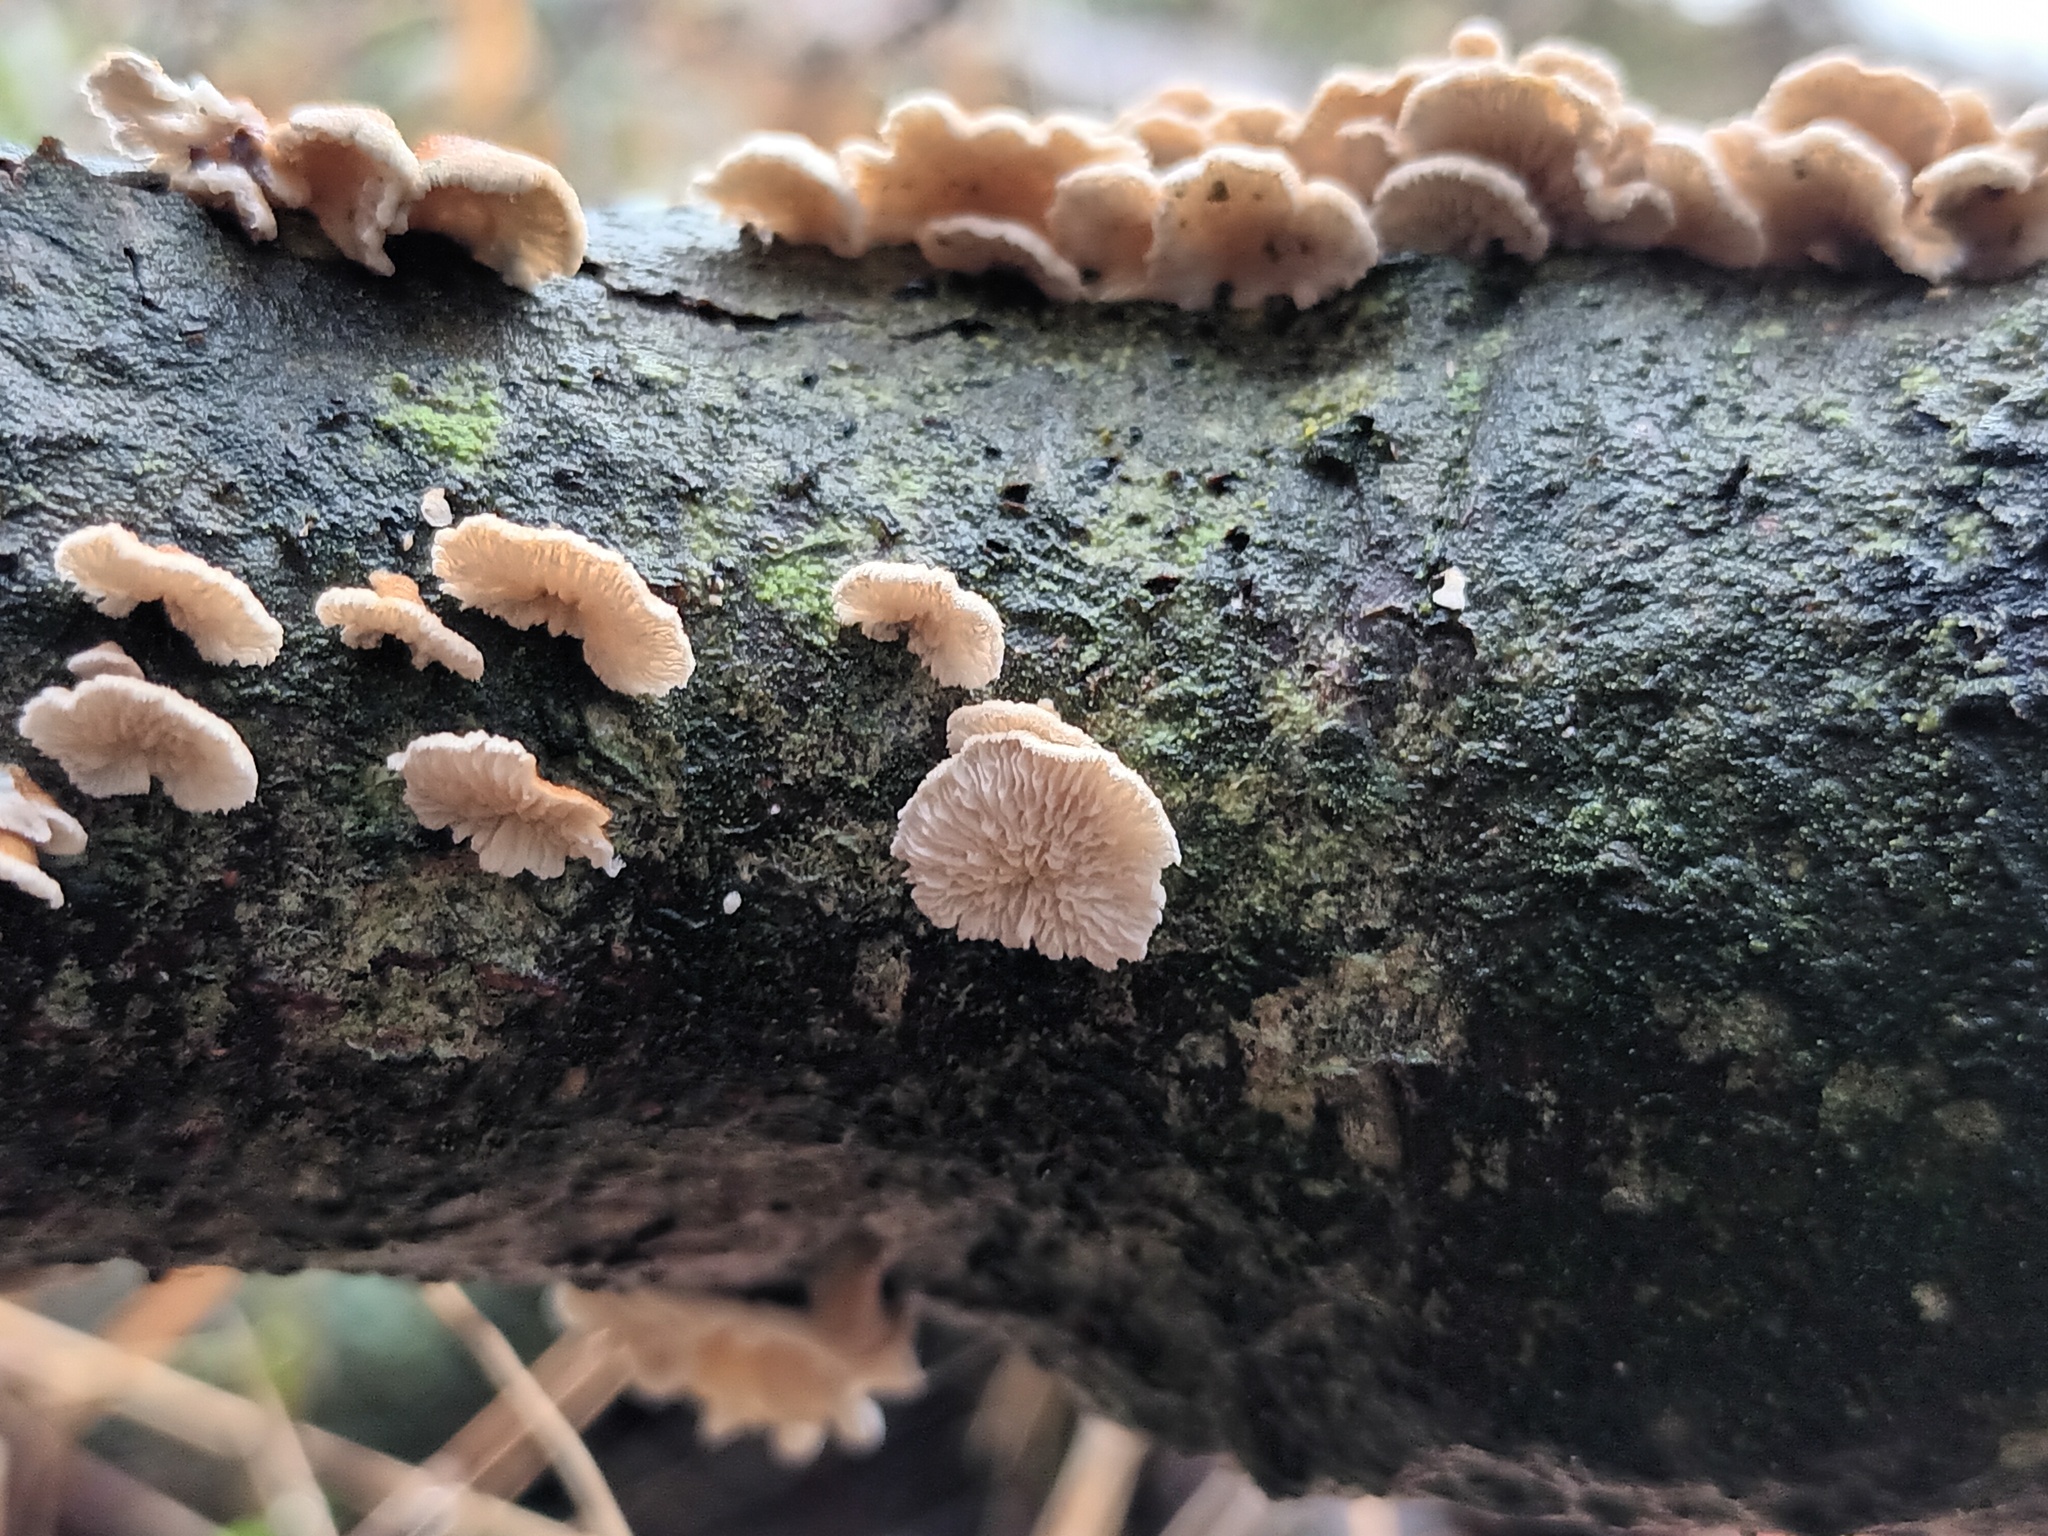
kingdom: Fungi
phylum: Basidiomycota
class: Agaricomycetes
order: Amylocorticiales
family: Amylocorticiaceae
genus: Plicaturopsis
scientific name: Plicaturopsis crispa
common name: Crimped gill
